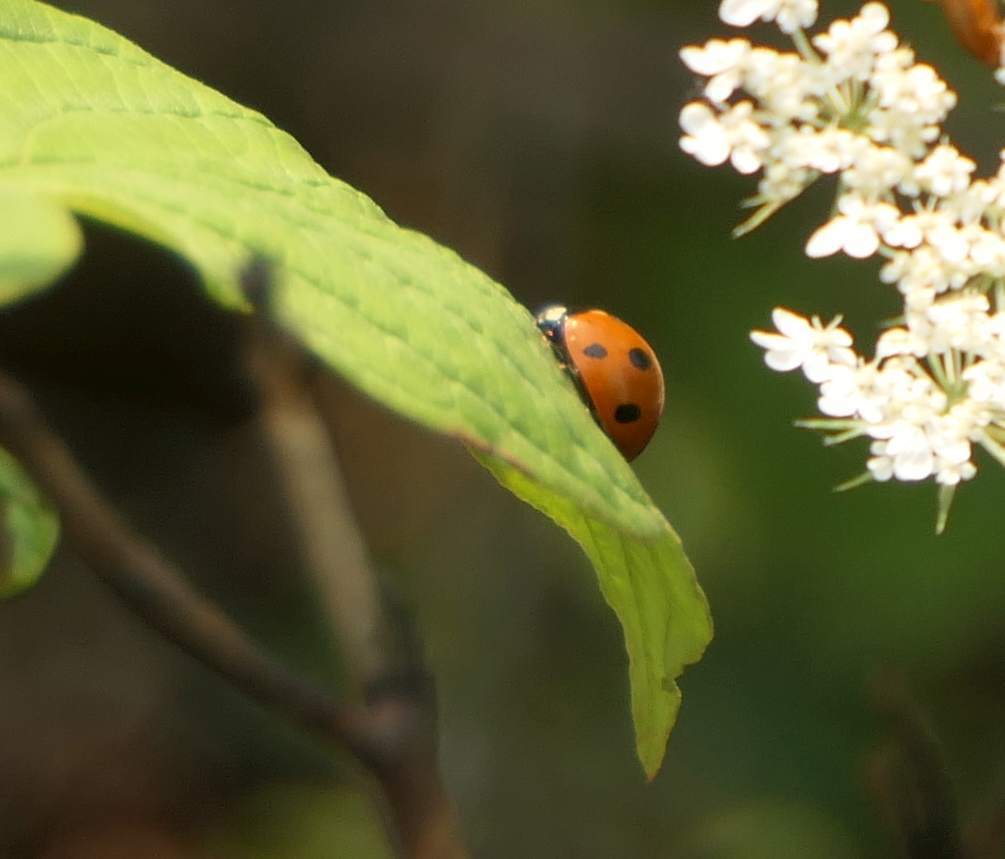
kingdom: Animalia
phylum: Arthropoda
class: Insecta
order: Coleoptera
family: Coccinellidae
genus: Coccinella
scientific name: Coccinella septempunctata
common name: Sevenspotted lady beetle
